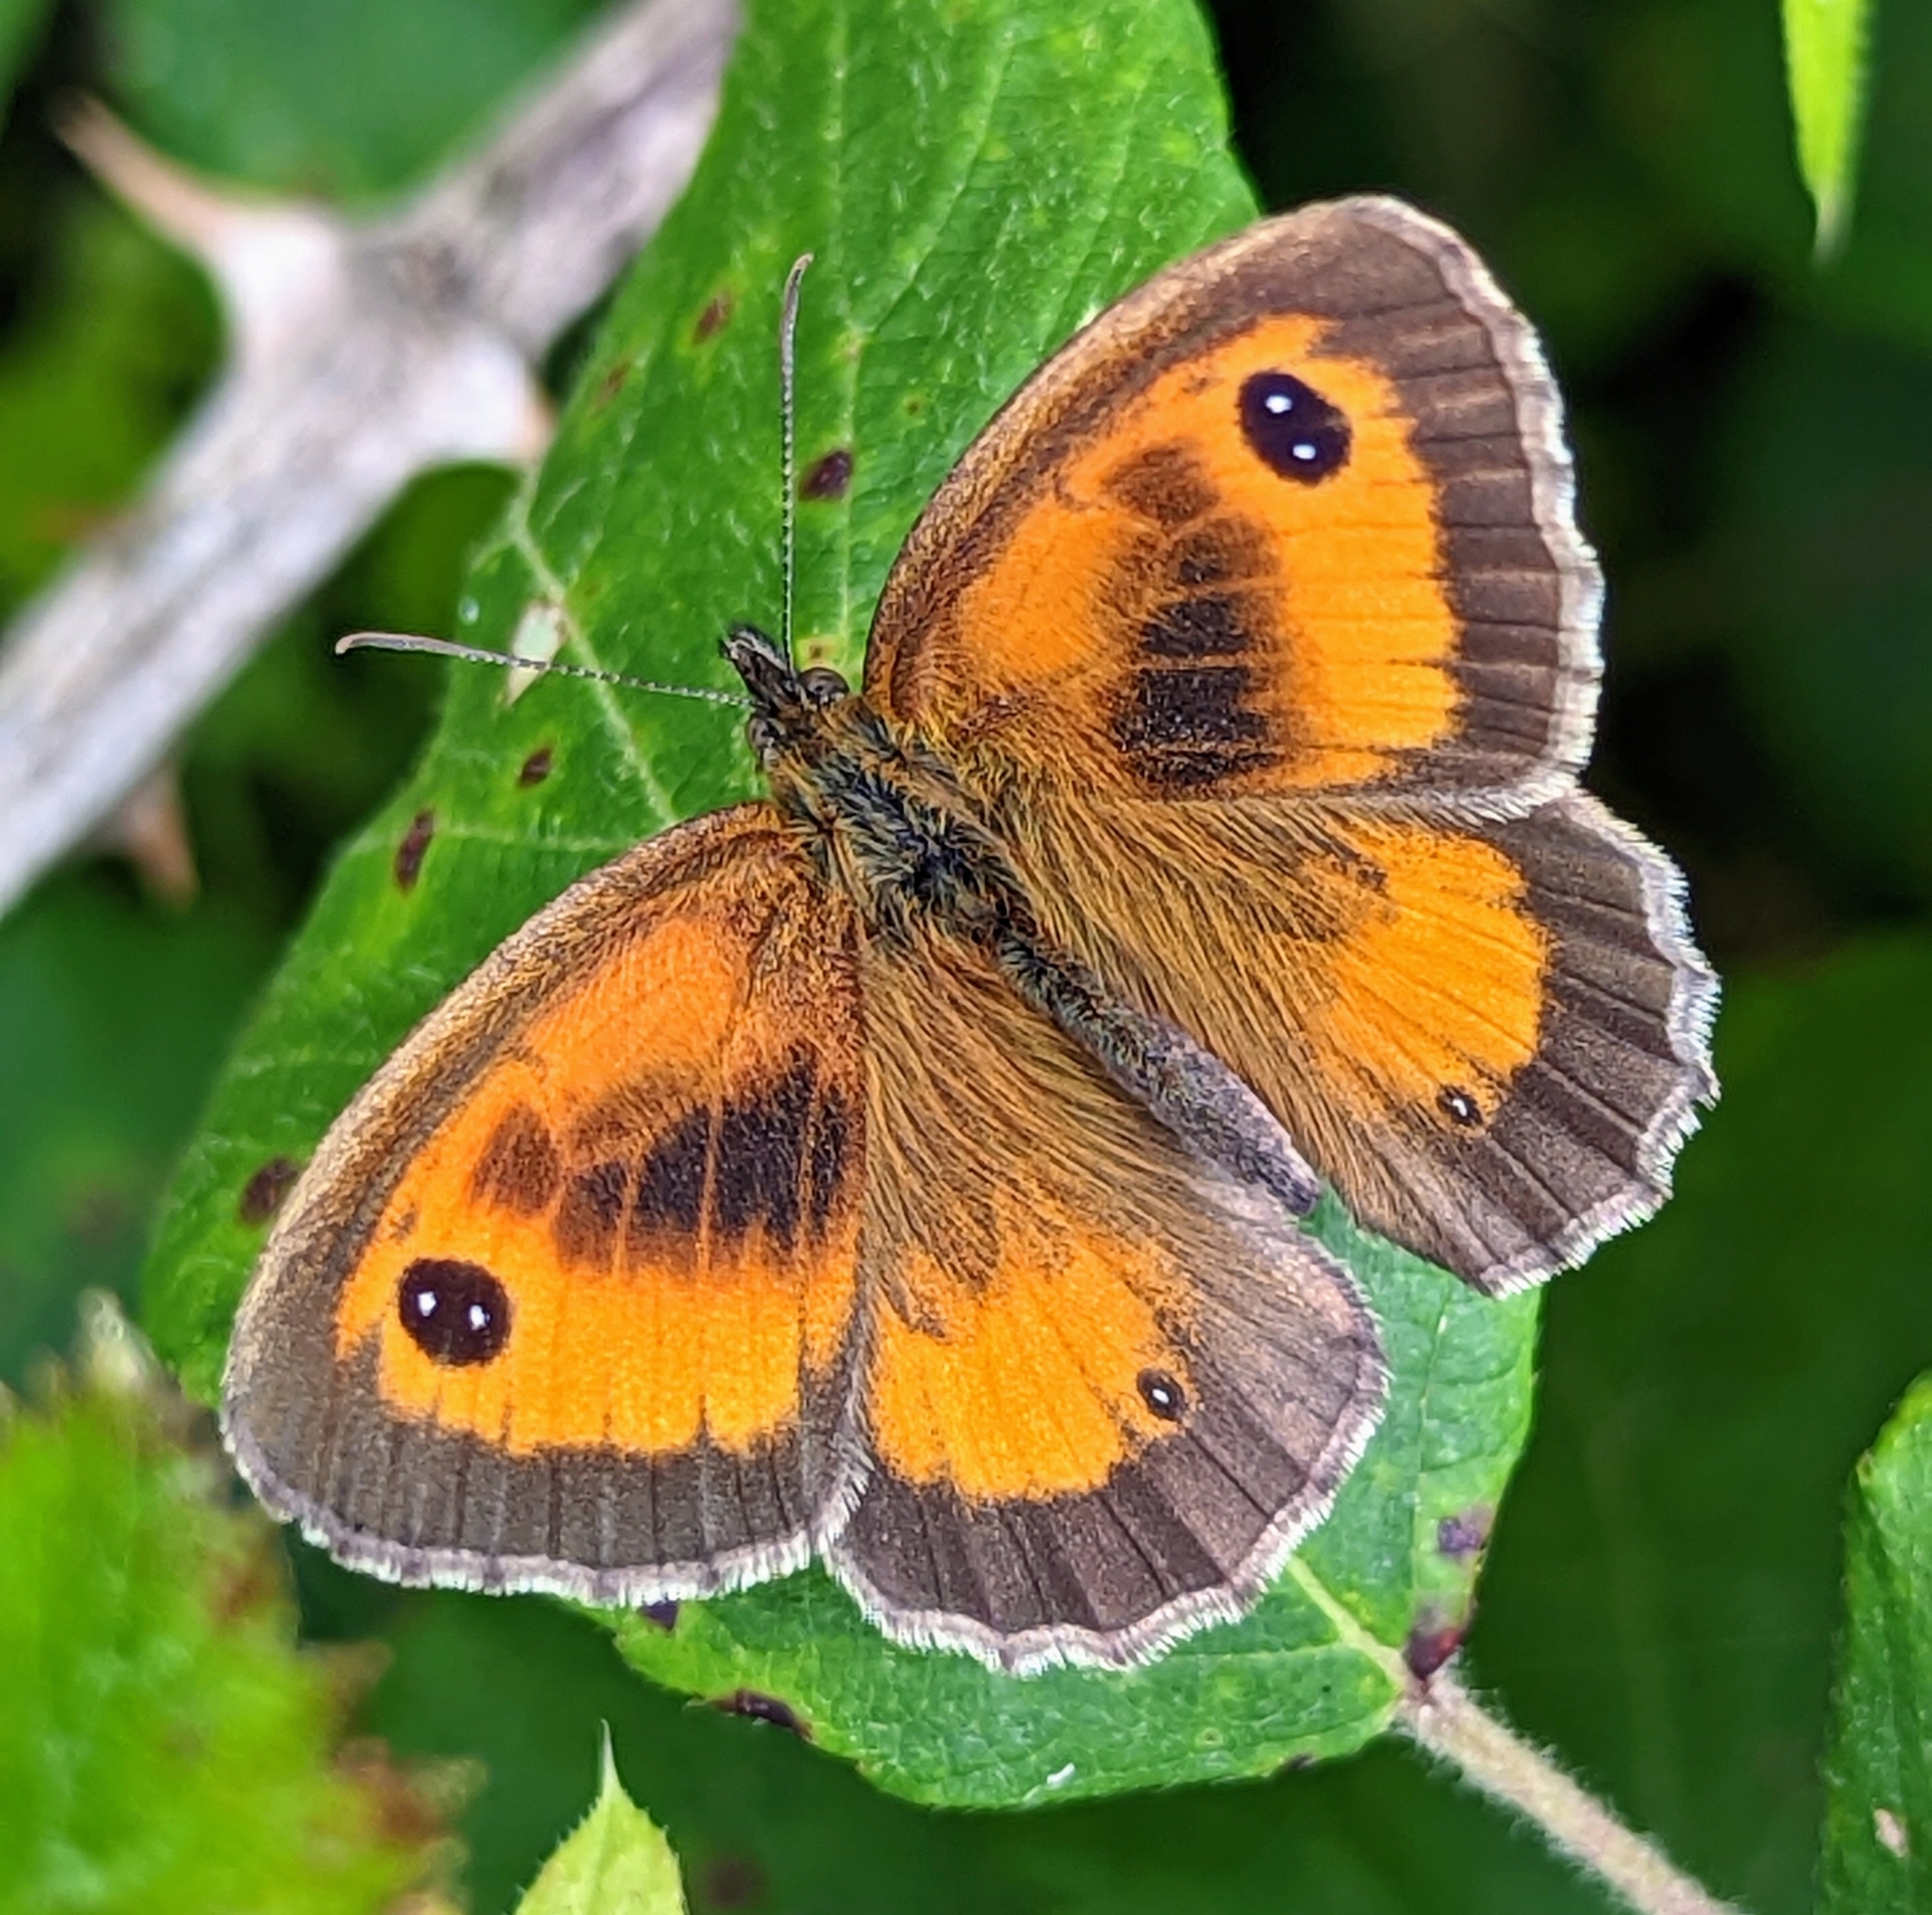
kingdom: Animalia
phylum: Arthropoda
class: Insecta
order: Lepidoptera
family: Nymphalidae
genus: Pyronia
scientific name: Pyronia tithonus
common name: Gatekeeper
